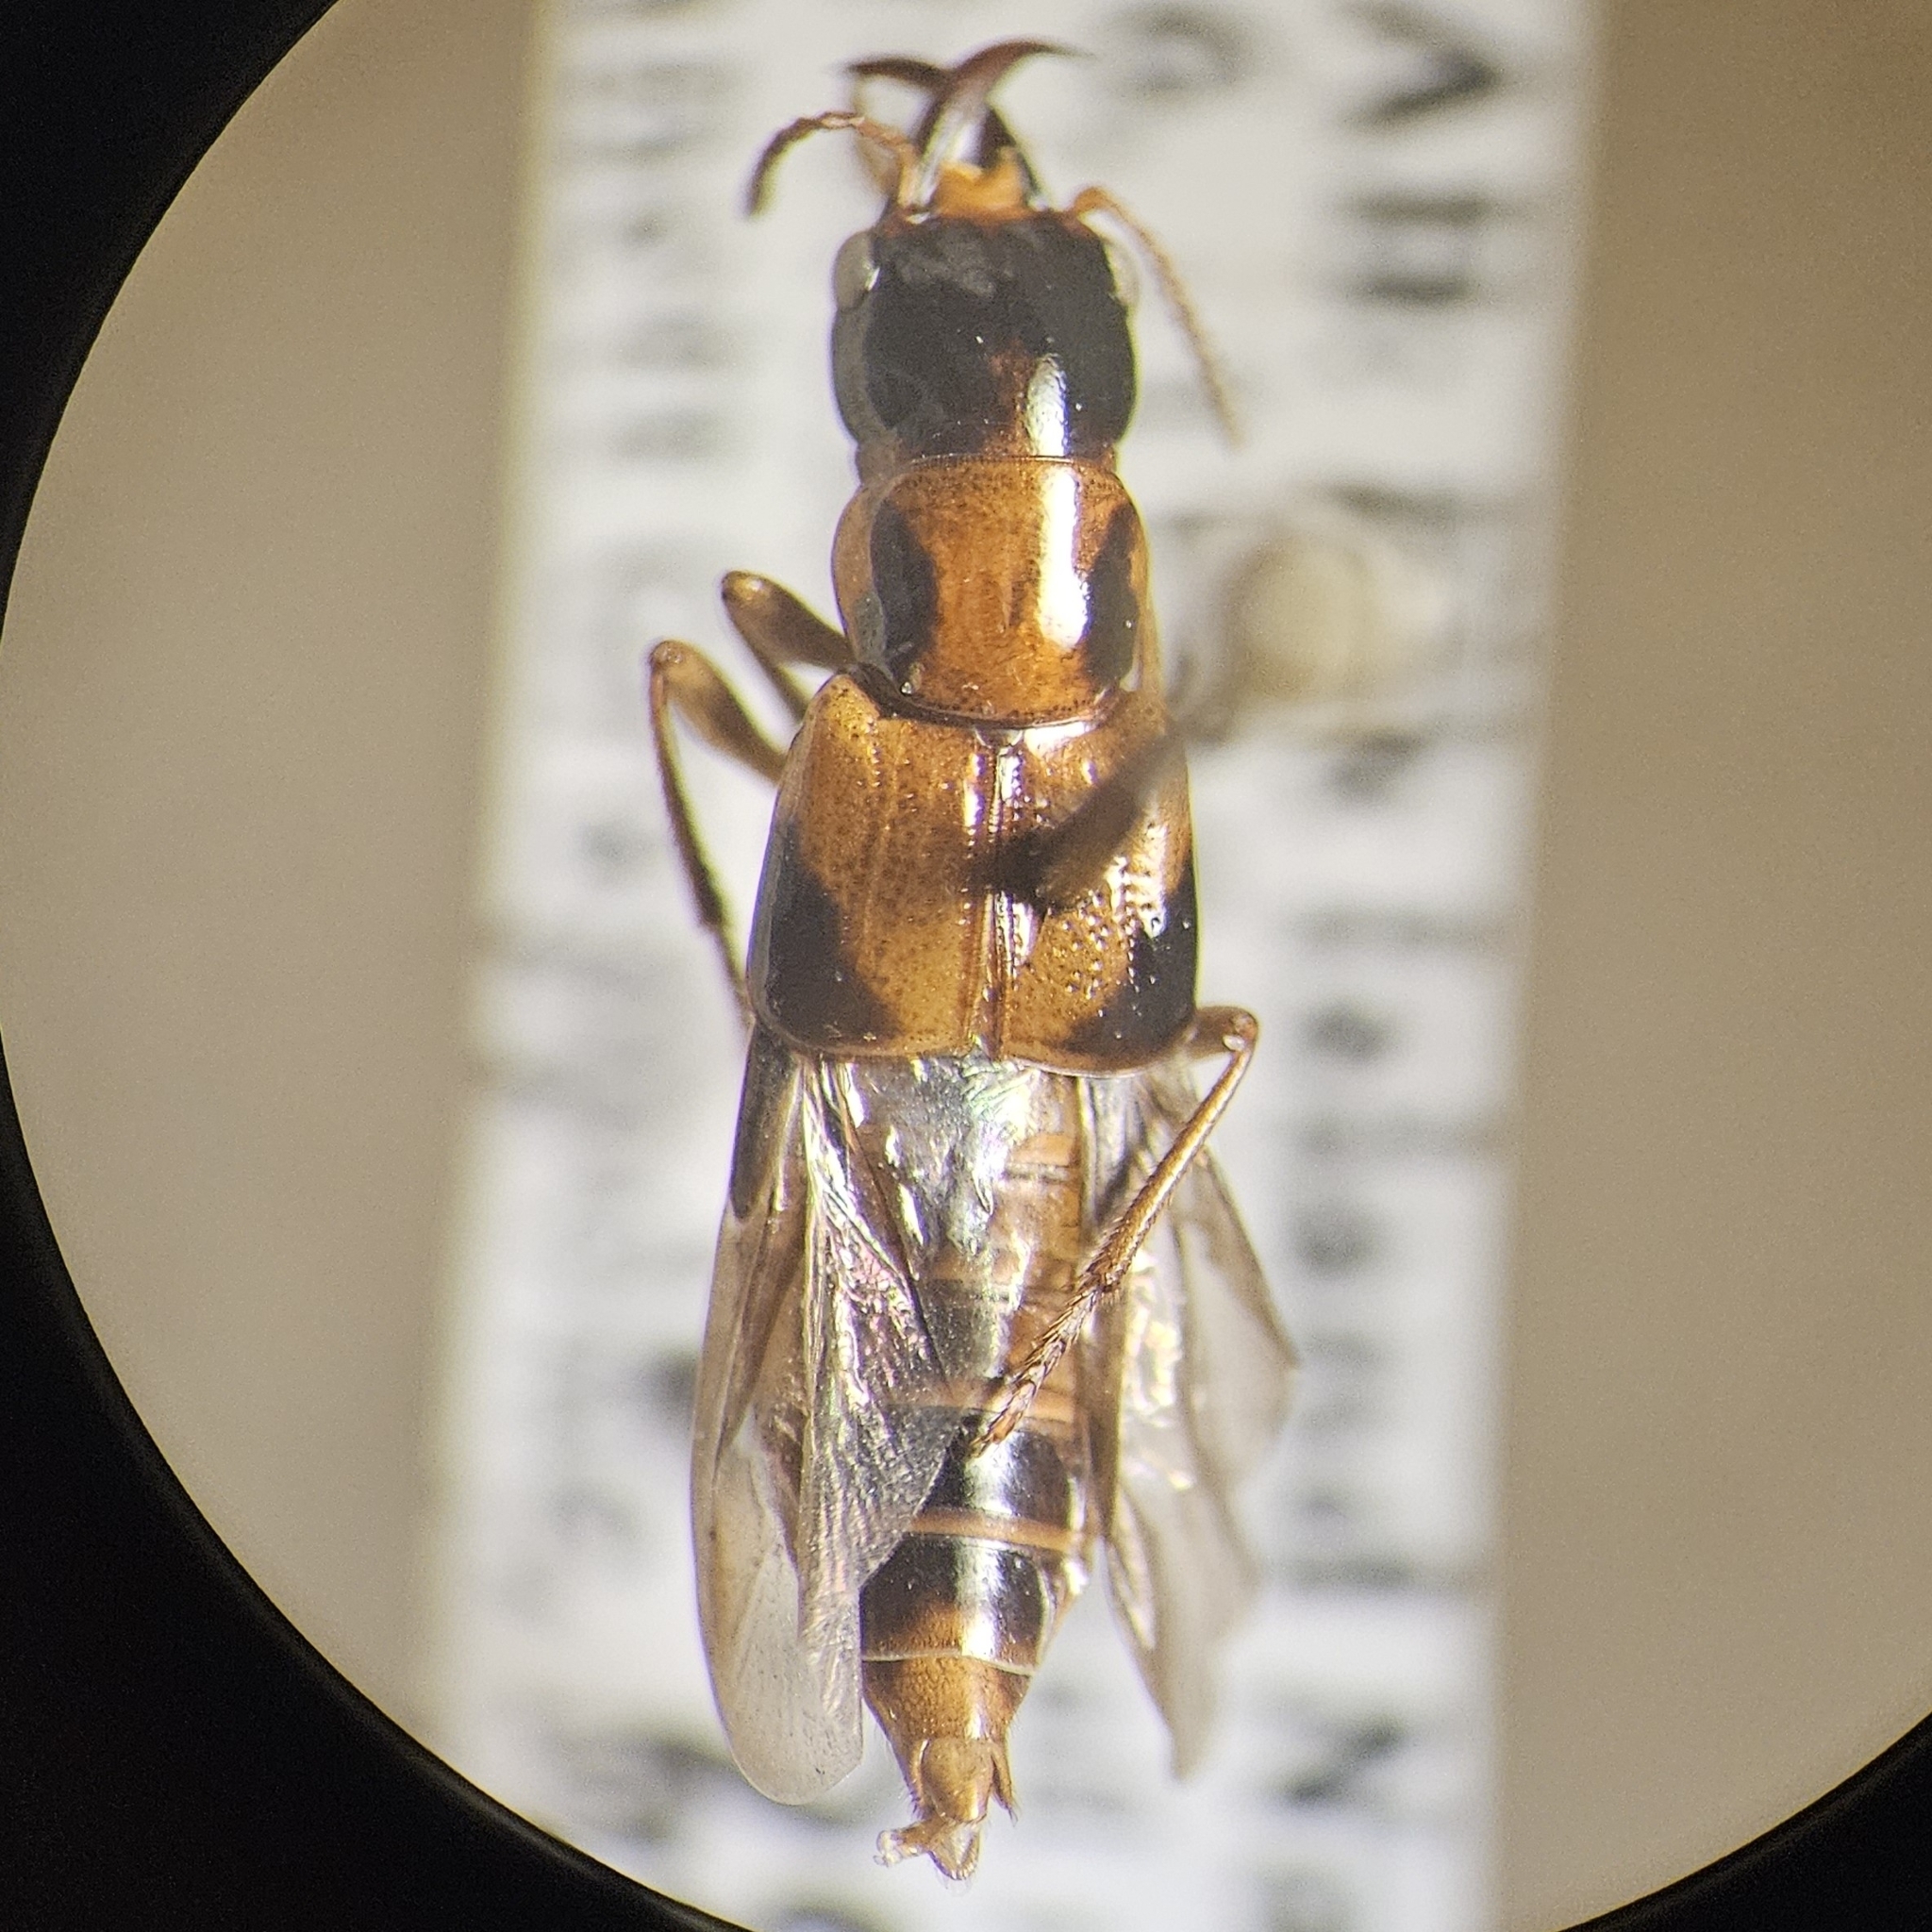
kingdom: Animalia
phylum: Arthropoda
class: Insecta
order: Coleoptera
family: Staphylinidae
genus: Pseudoxyporus
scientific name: Pseudoxyporus occipitalis
